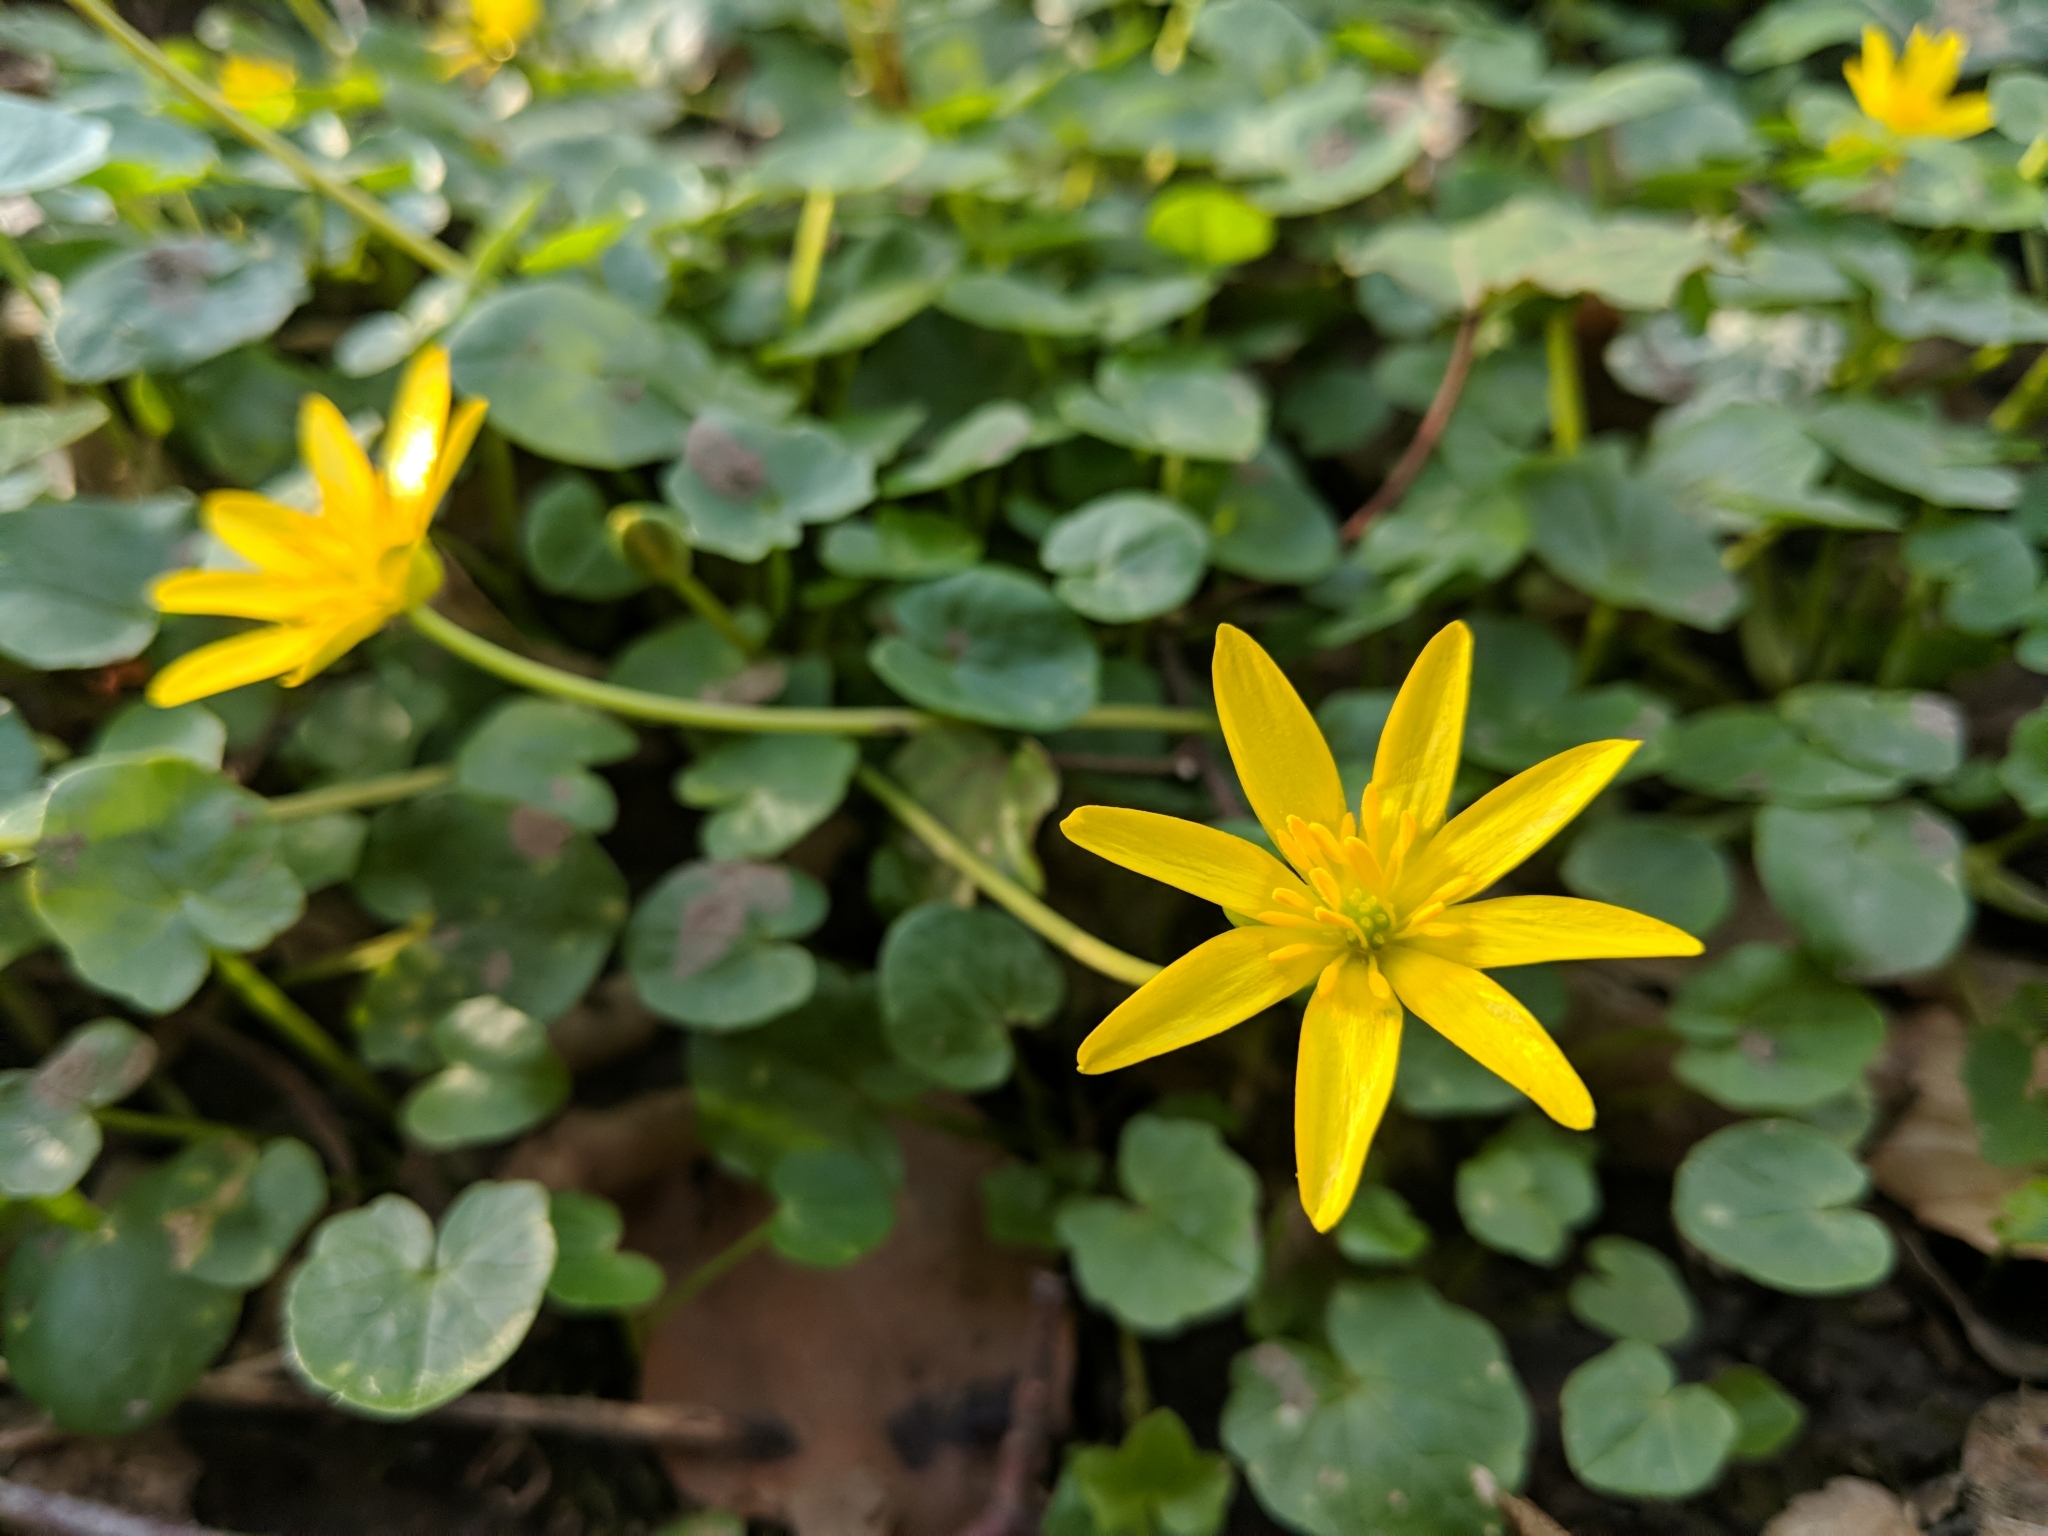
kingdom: Plantae
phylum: Tracheophyta
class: Magnoliopsida
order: Ranunculales
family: Ranunculaceae
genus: Ficaria
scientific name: Ficaria verna
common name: Lesser celandine
